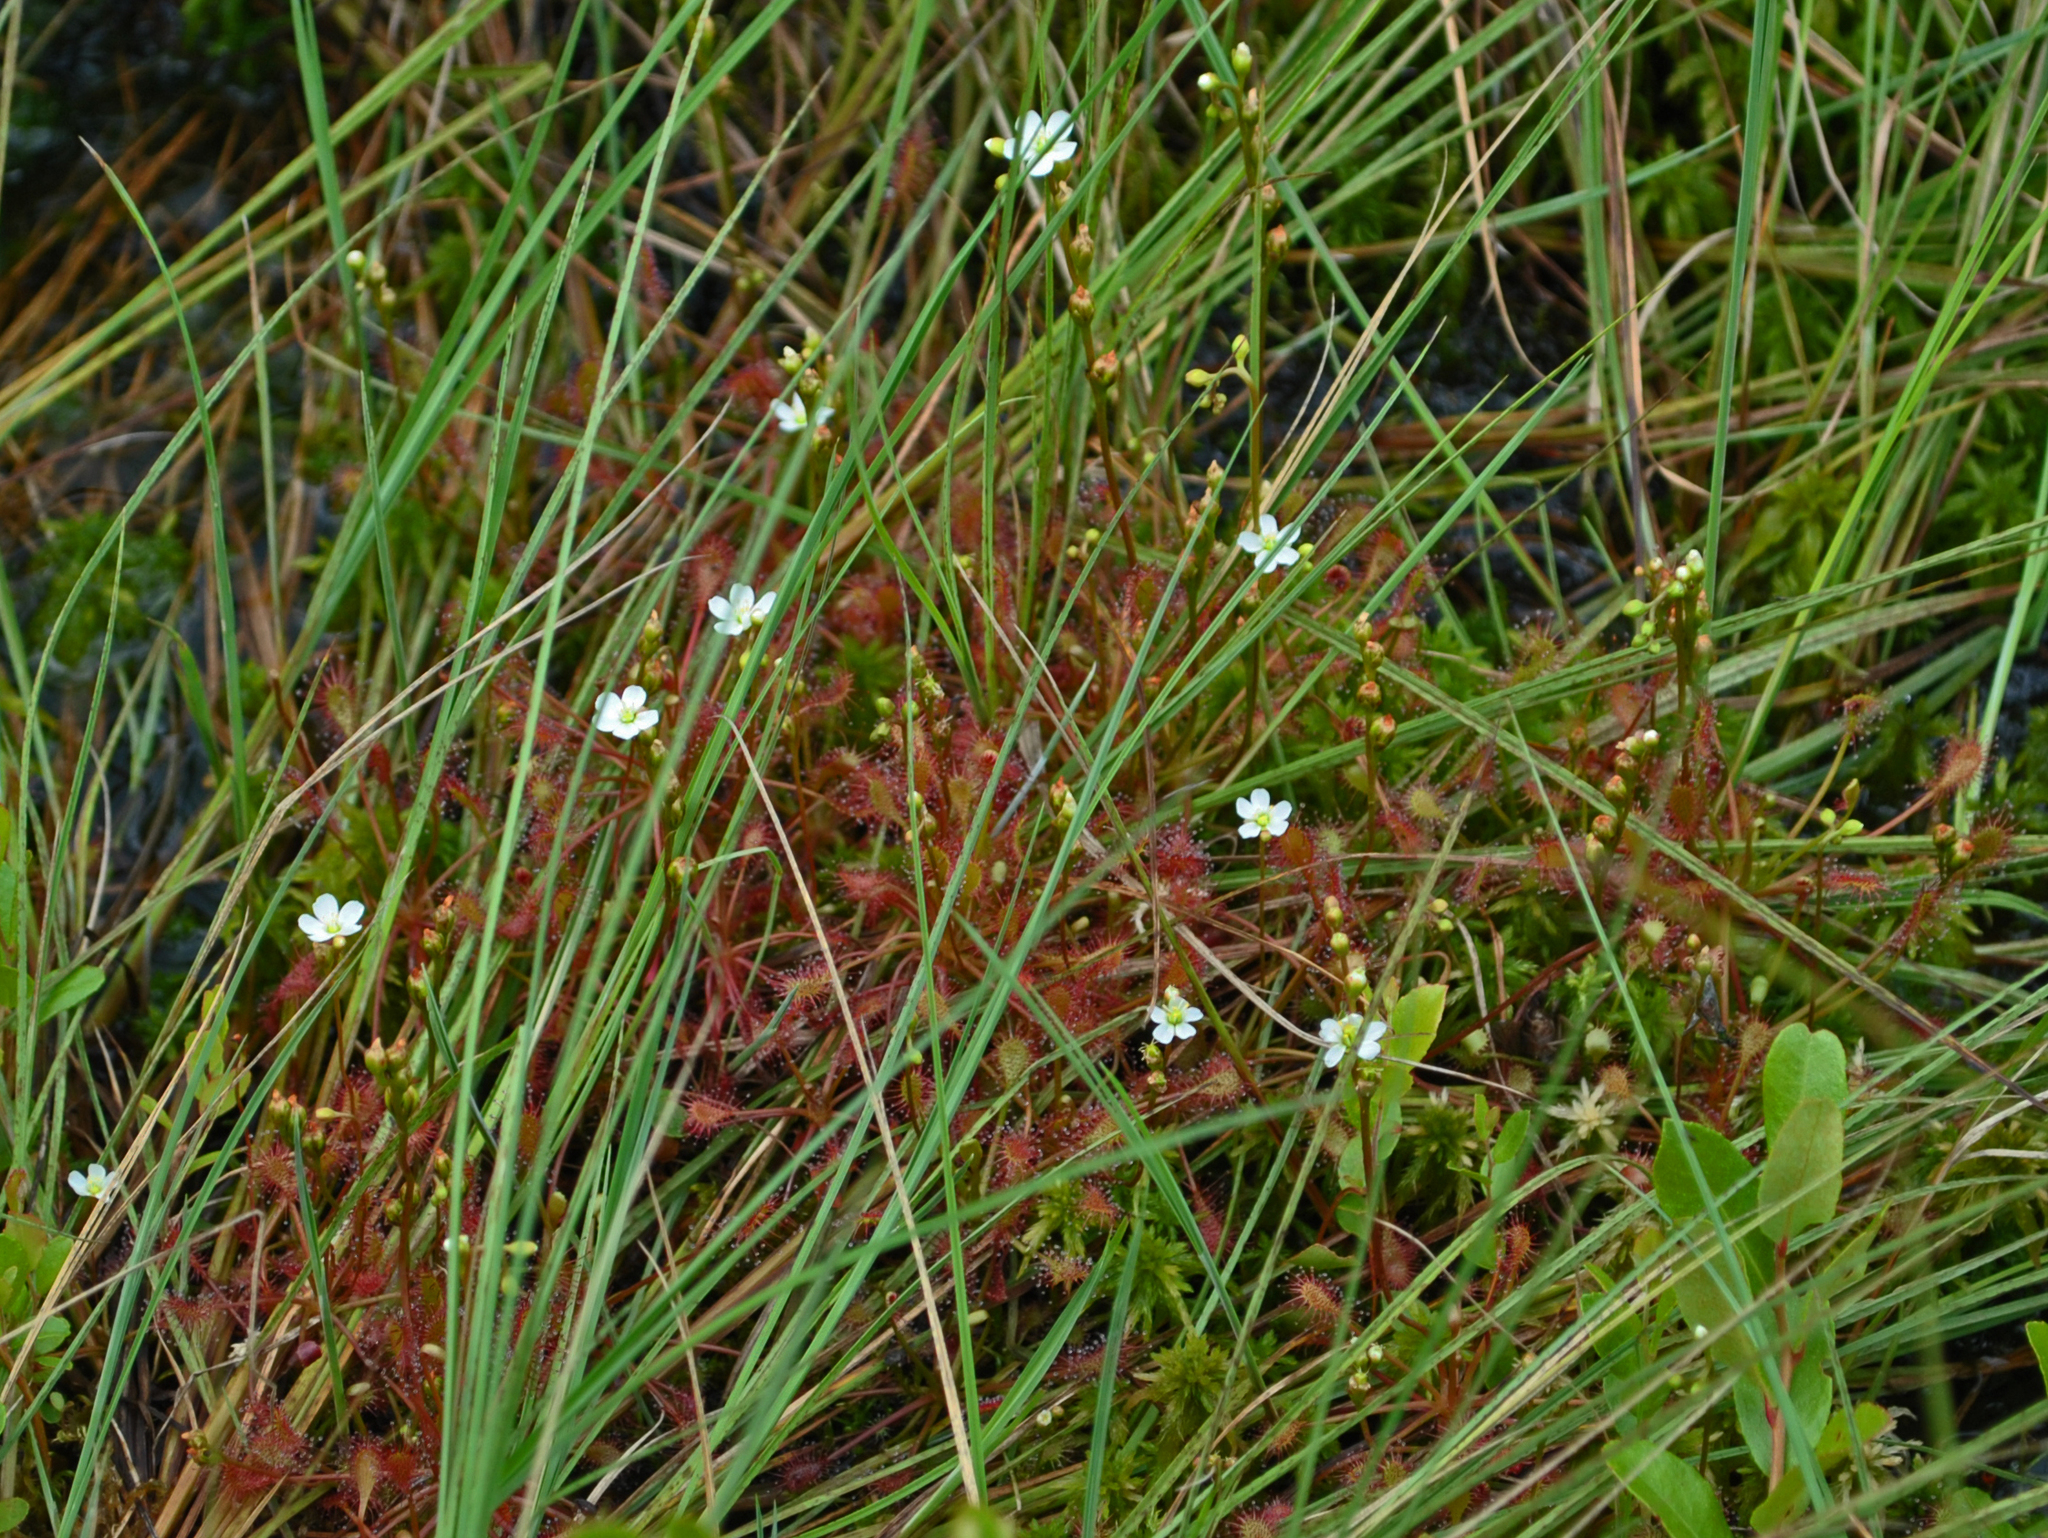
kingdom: Plantae
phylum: Tracheophyta
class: Magnoliopsida
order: Caryophyllales
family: Droseraceae
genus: Drosera
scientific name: Drosera intermedia
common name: Oblong-leaved sundew
